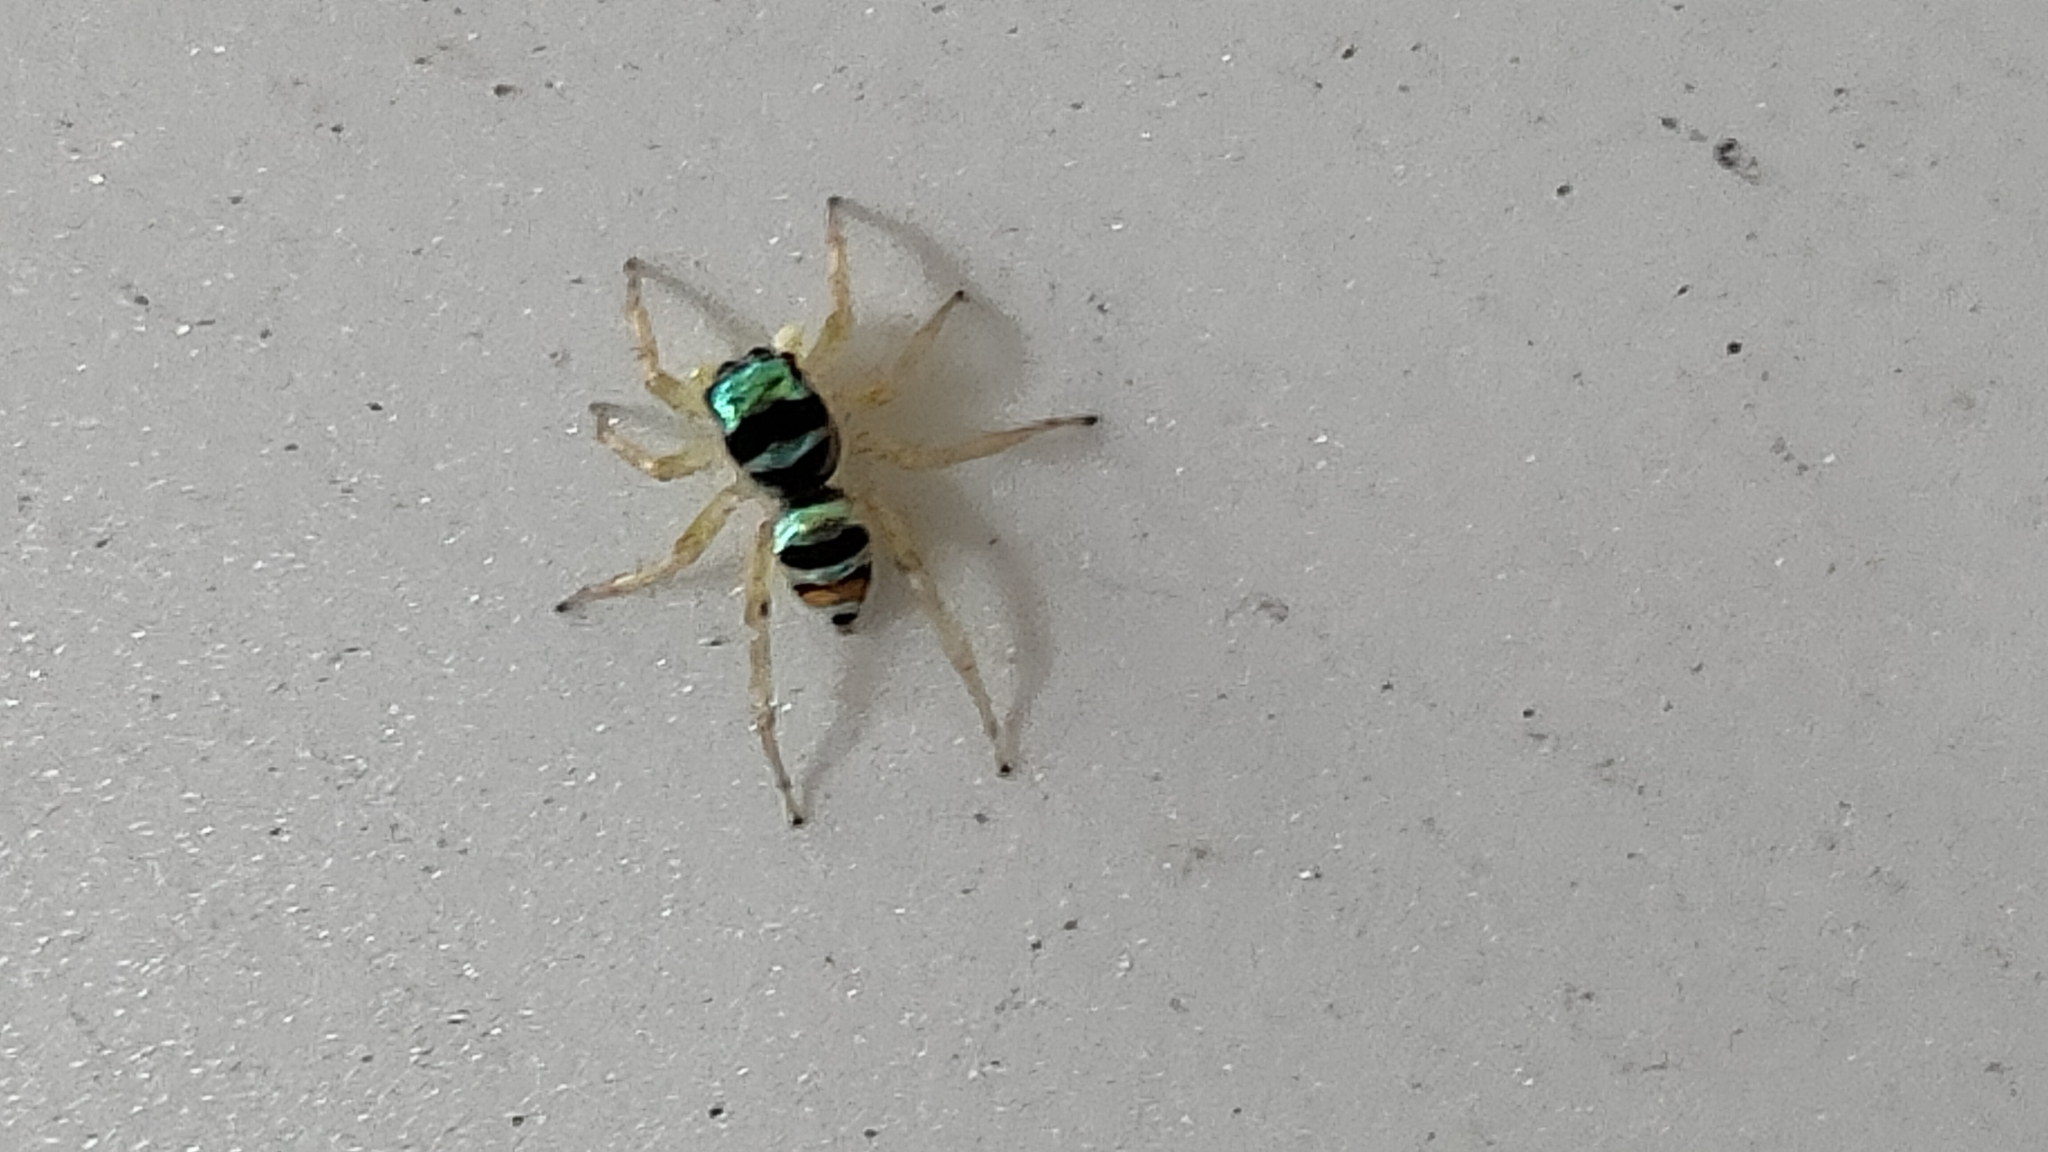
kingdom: Animalia
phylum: Arthropoda
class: Arachnida
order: Araneae
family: Salticidae
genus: Phintella
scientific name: Phintella vittata
